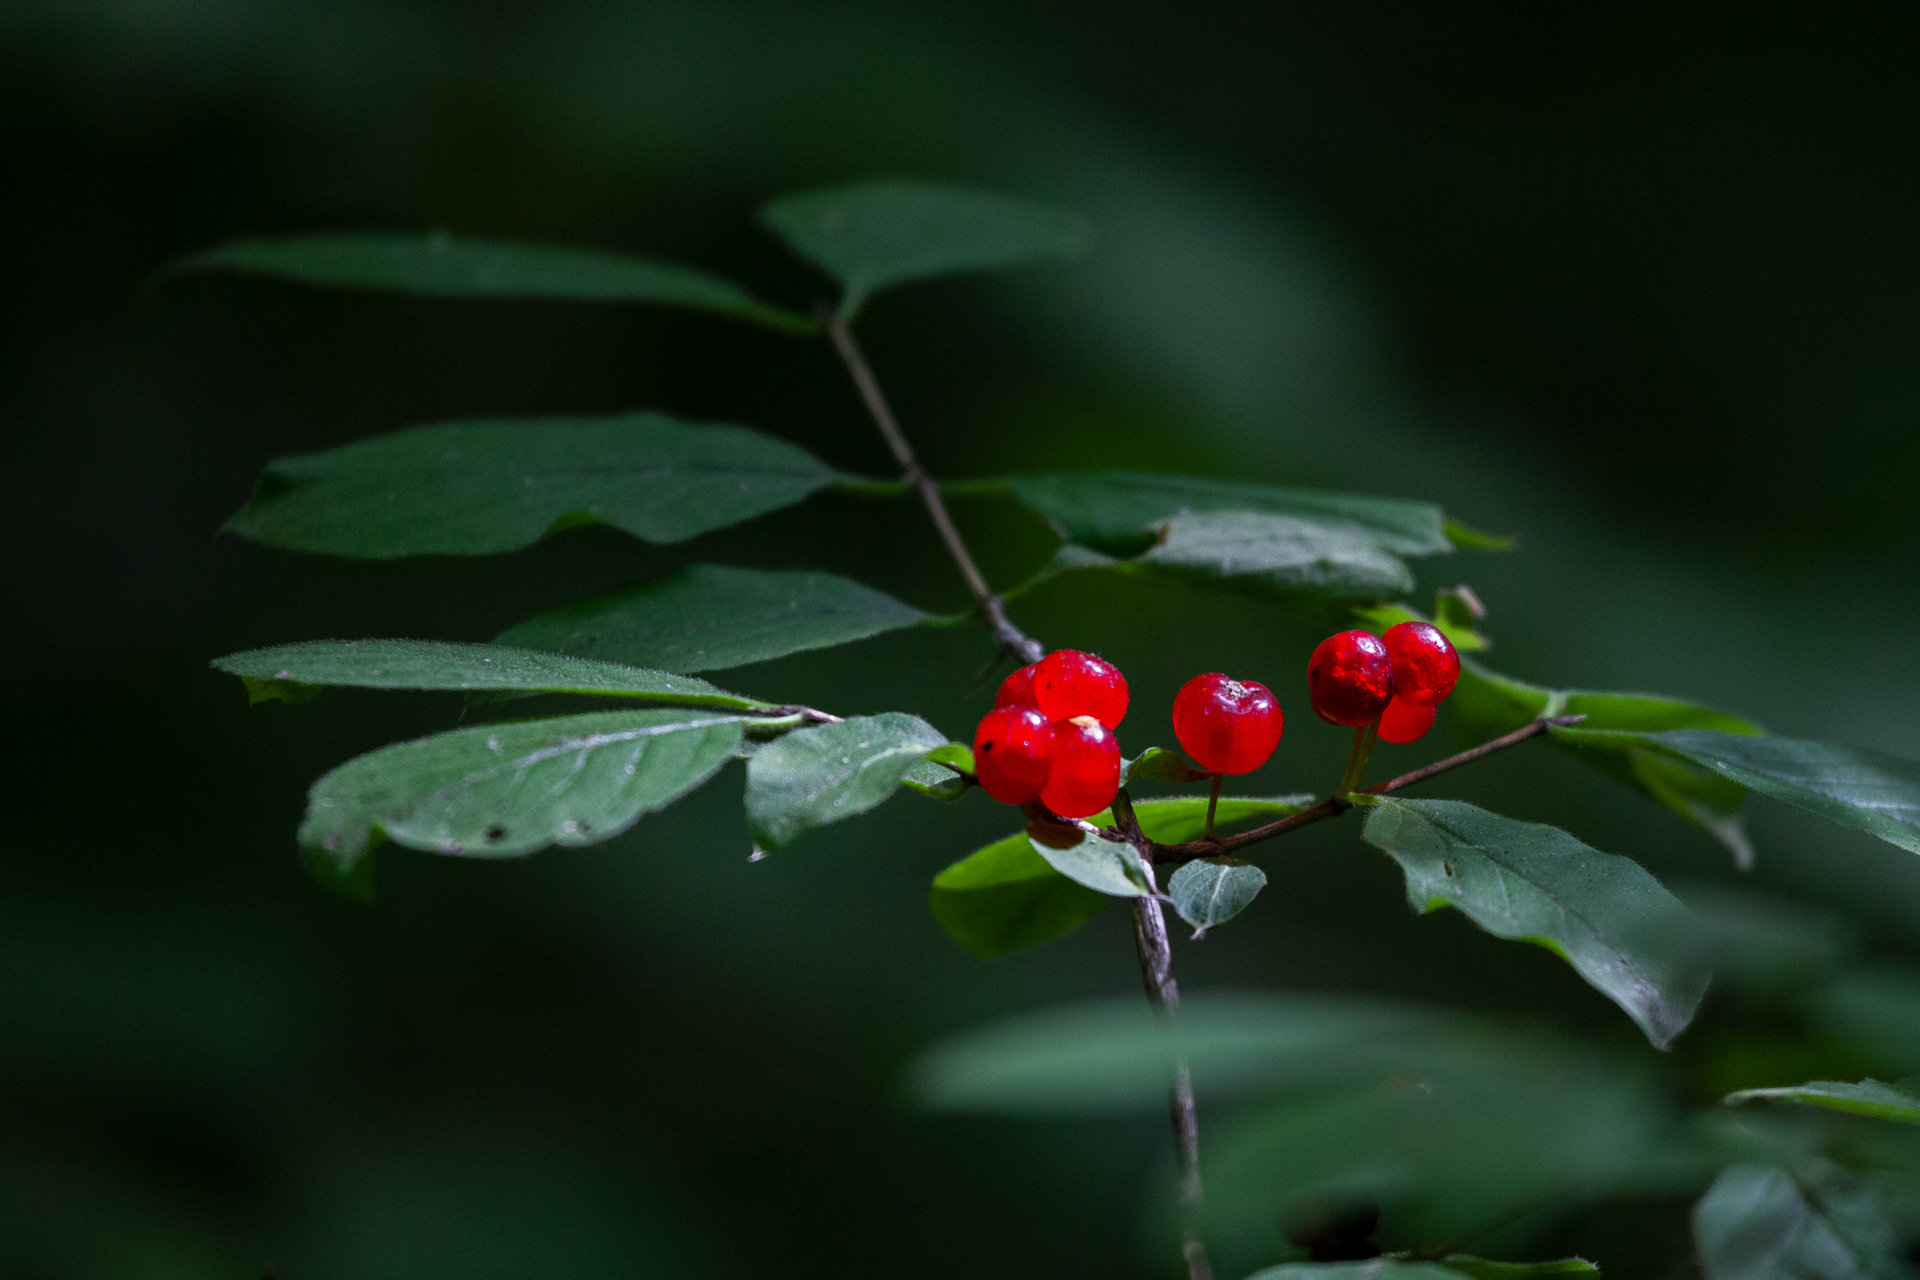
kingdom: Plantae
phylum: Tracheophyta
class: Magnoliopsida
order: Dipsacales
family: Caprifoliaceae
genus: Lonicera
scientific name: Lonicera xylosteum
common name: Fly honeysuckle
